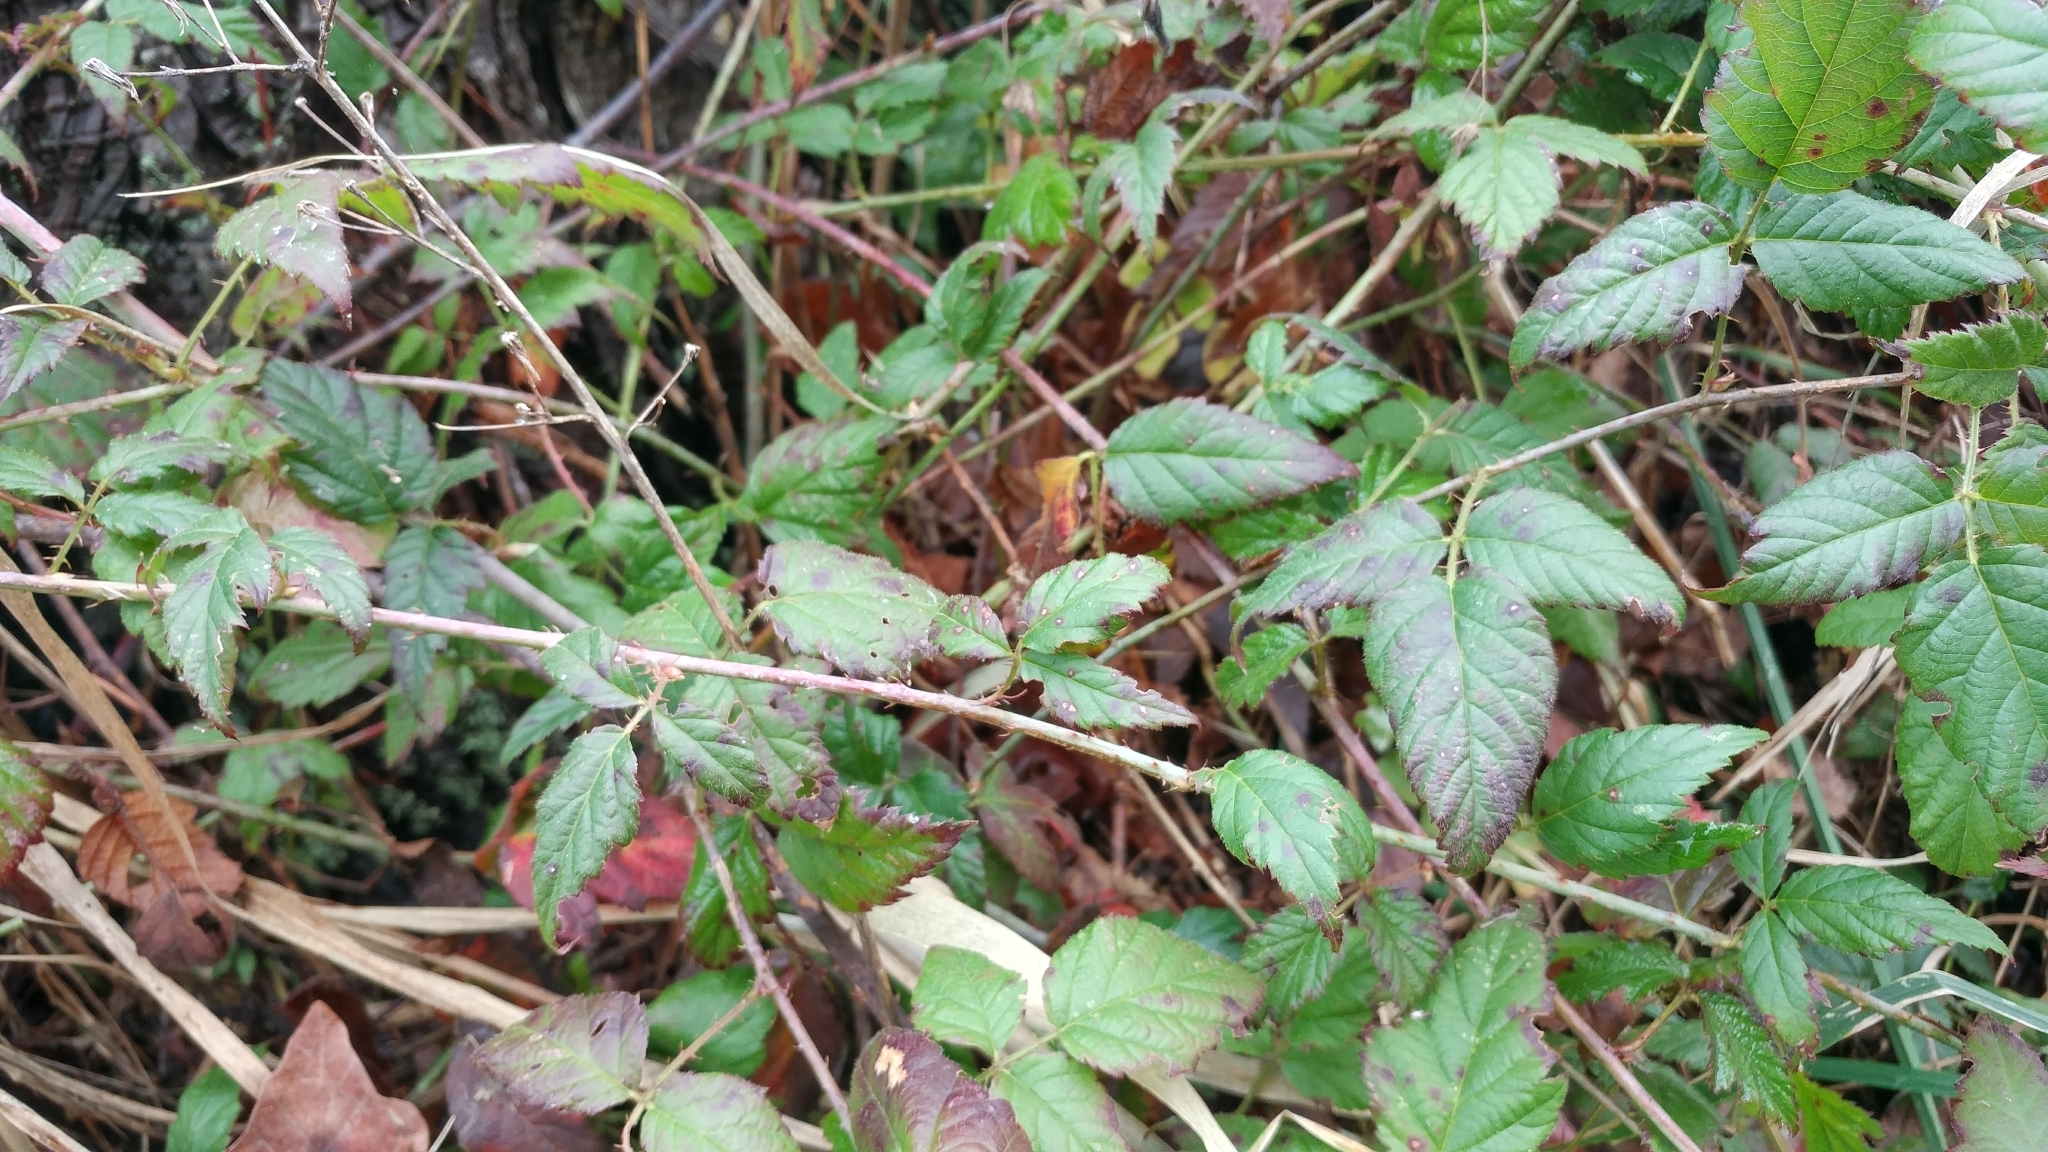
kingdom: Plantae
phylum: Tracheophyta
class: Magnoliopsida
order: Rosales
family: Rosaceae
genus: Rubus
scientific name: Rubus ursinus
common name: Pacific blackberry
